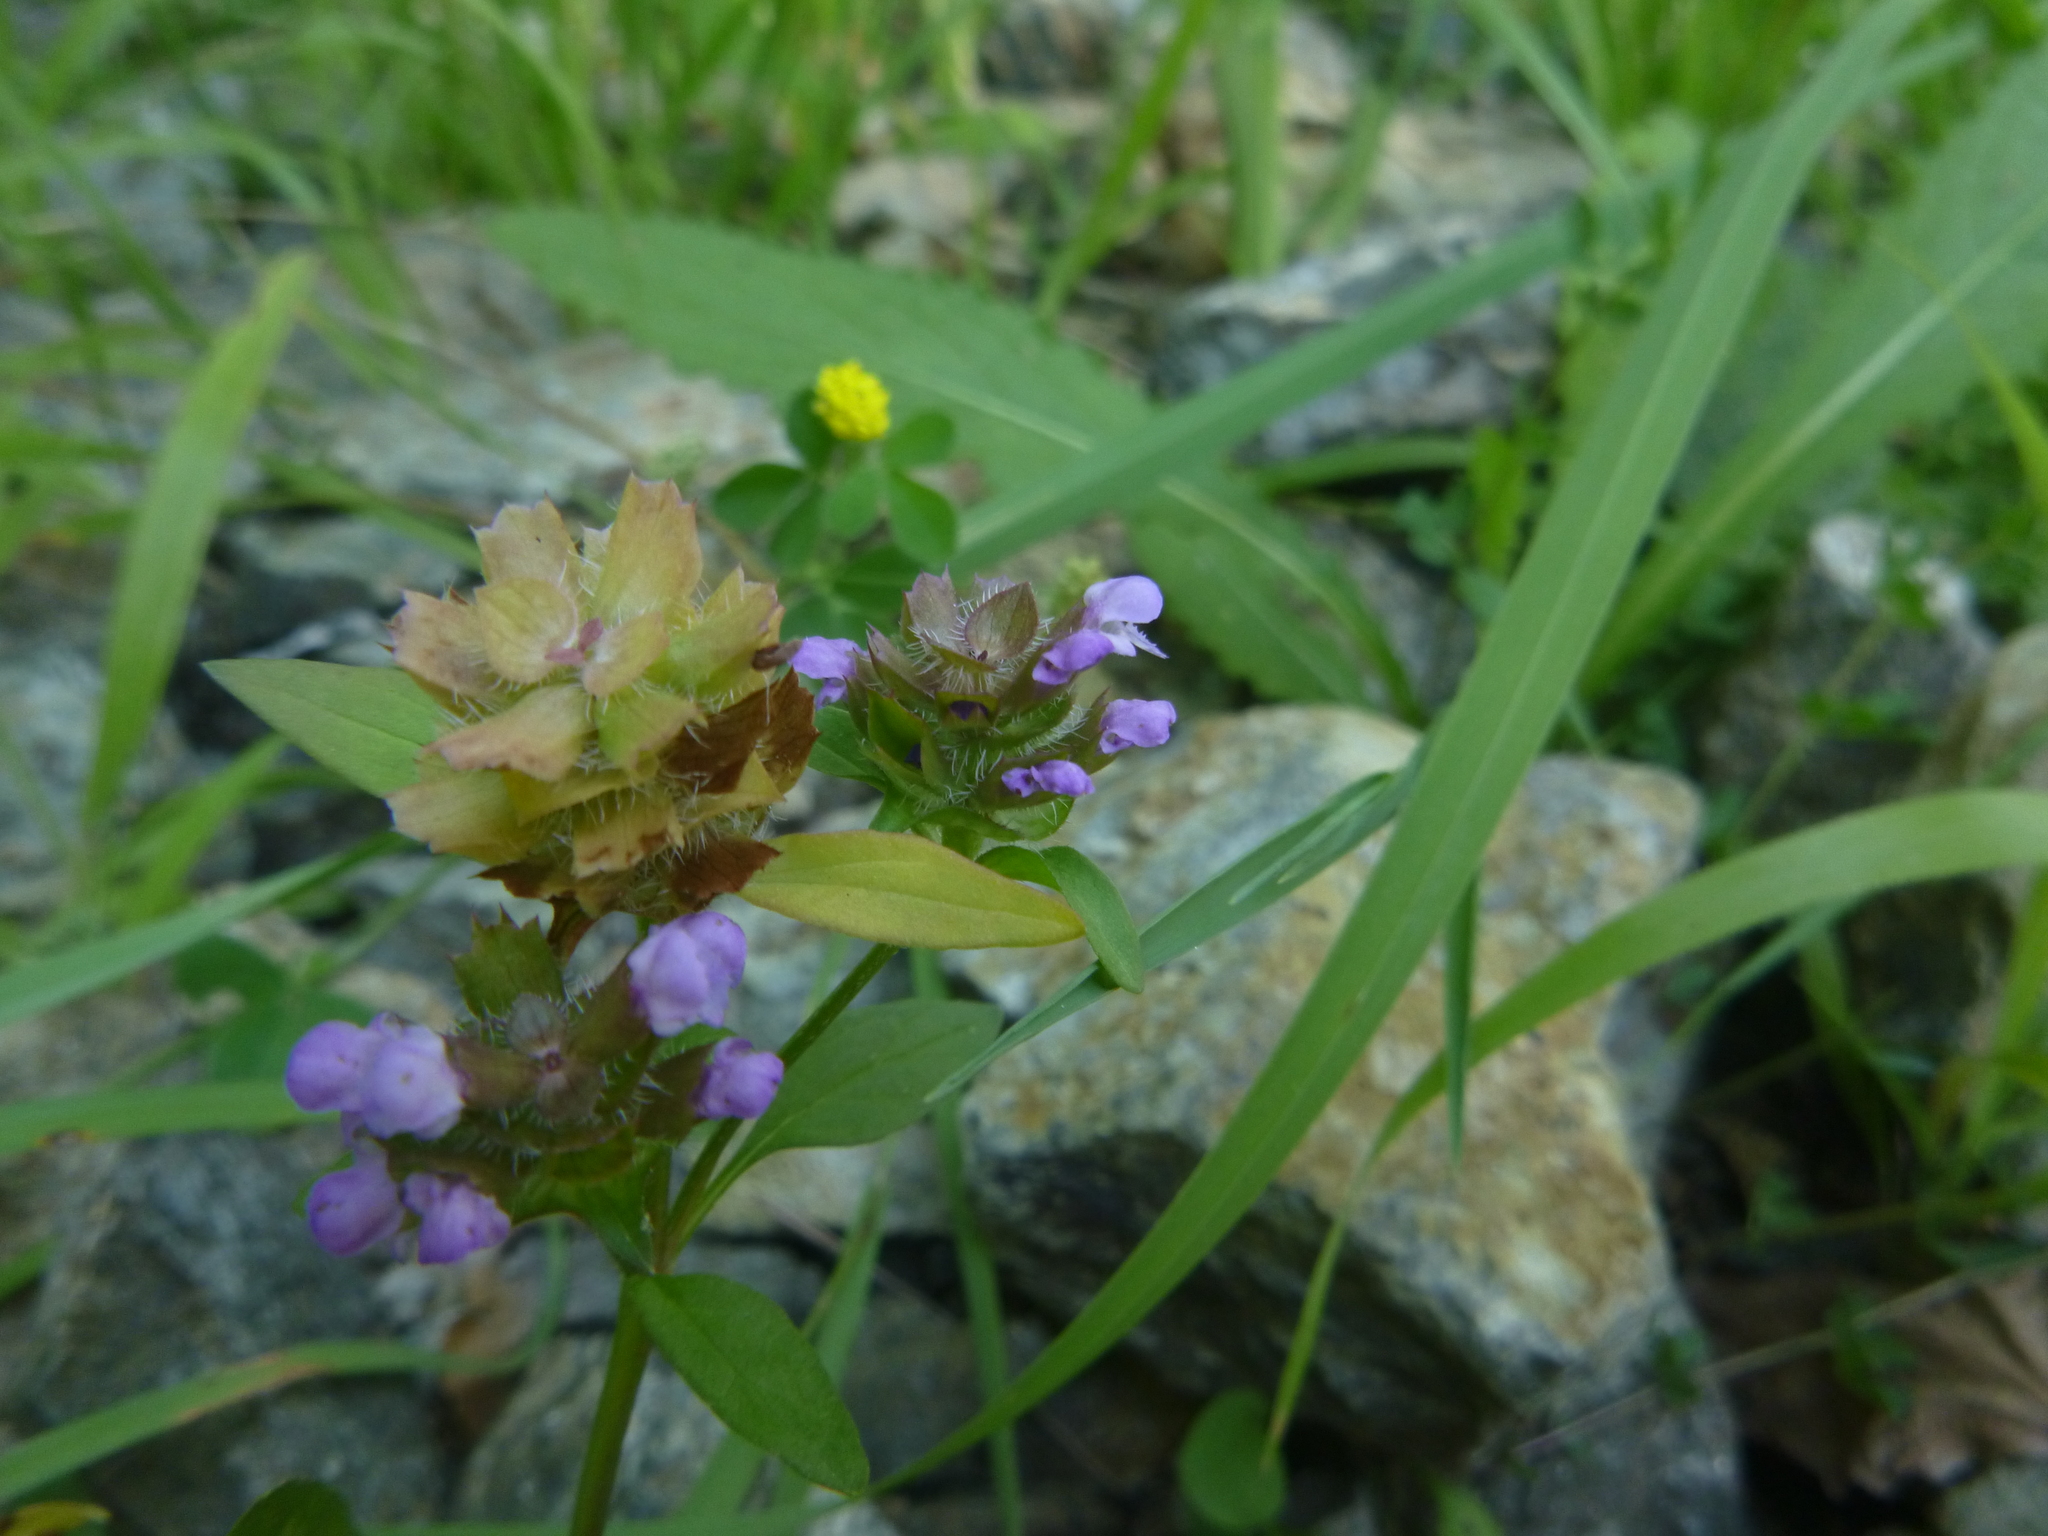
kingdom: Plantae
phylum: Tracheophyta
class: Magnoliopsida
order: Lamiales
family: Lamiaceae
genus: Prunella
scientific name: Prunella vulgaris
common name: Heal-all
